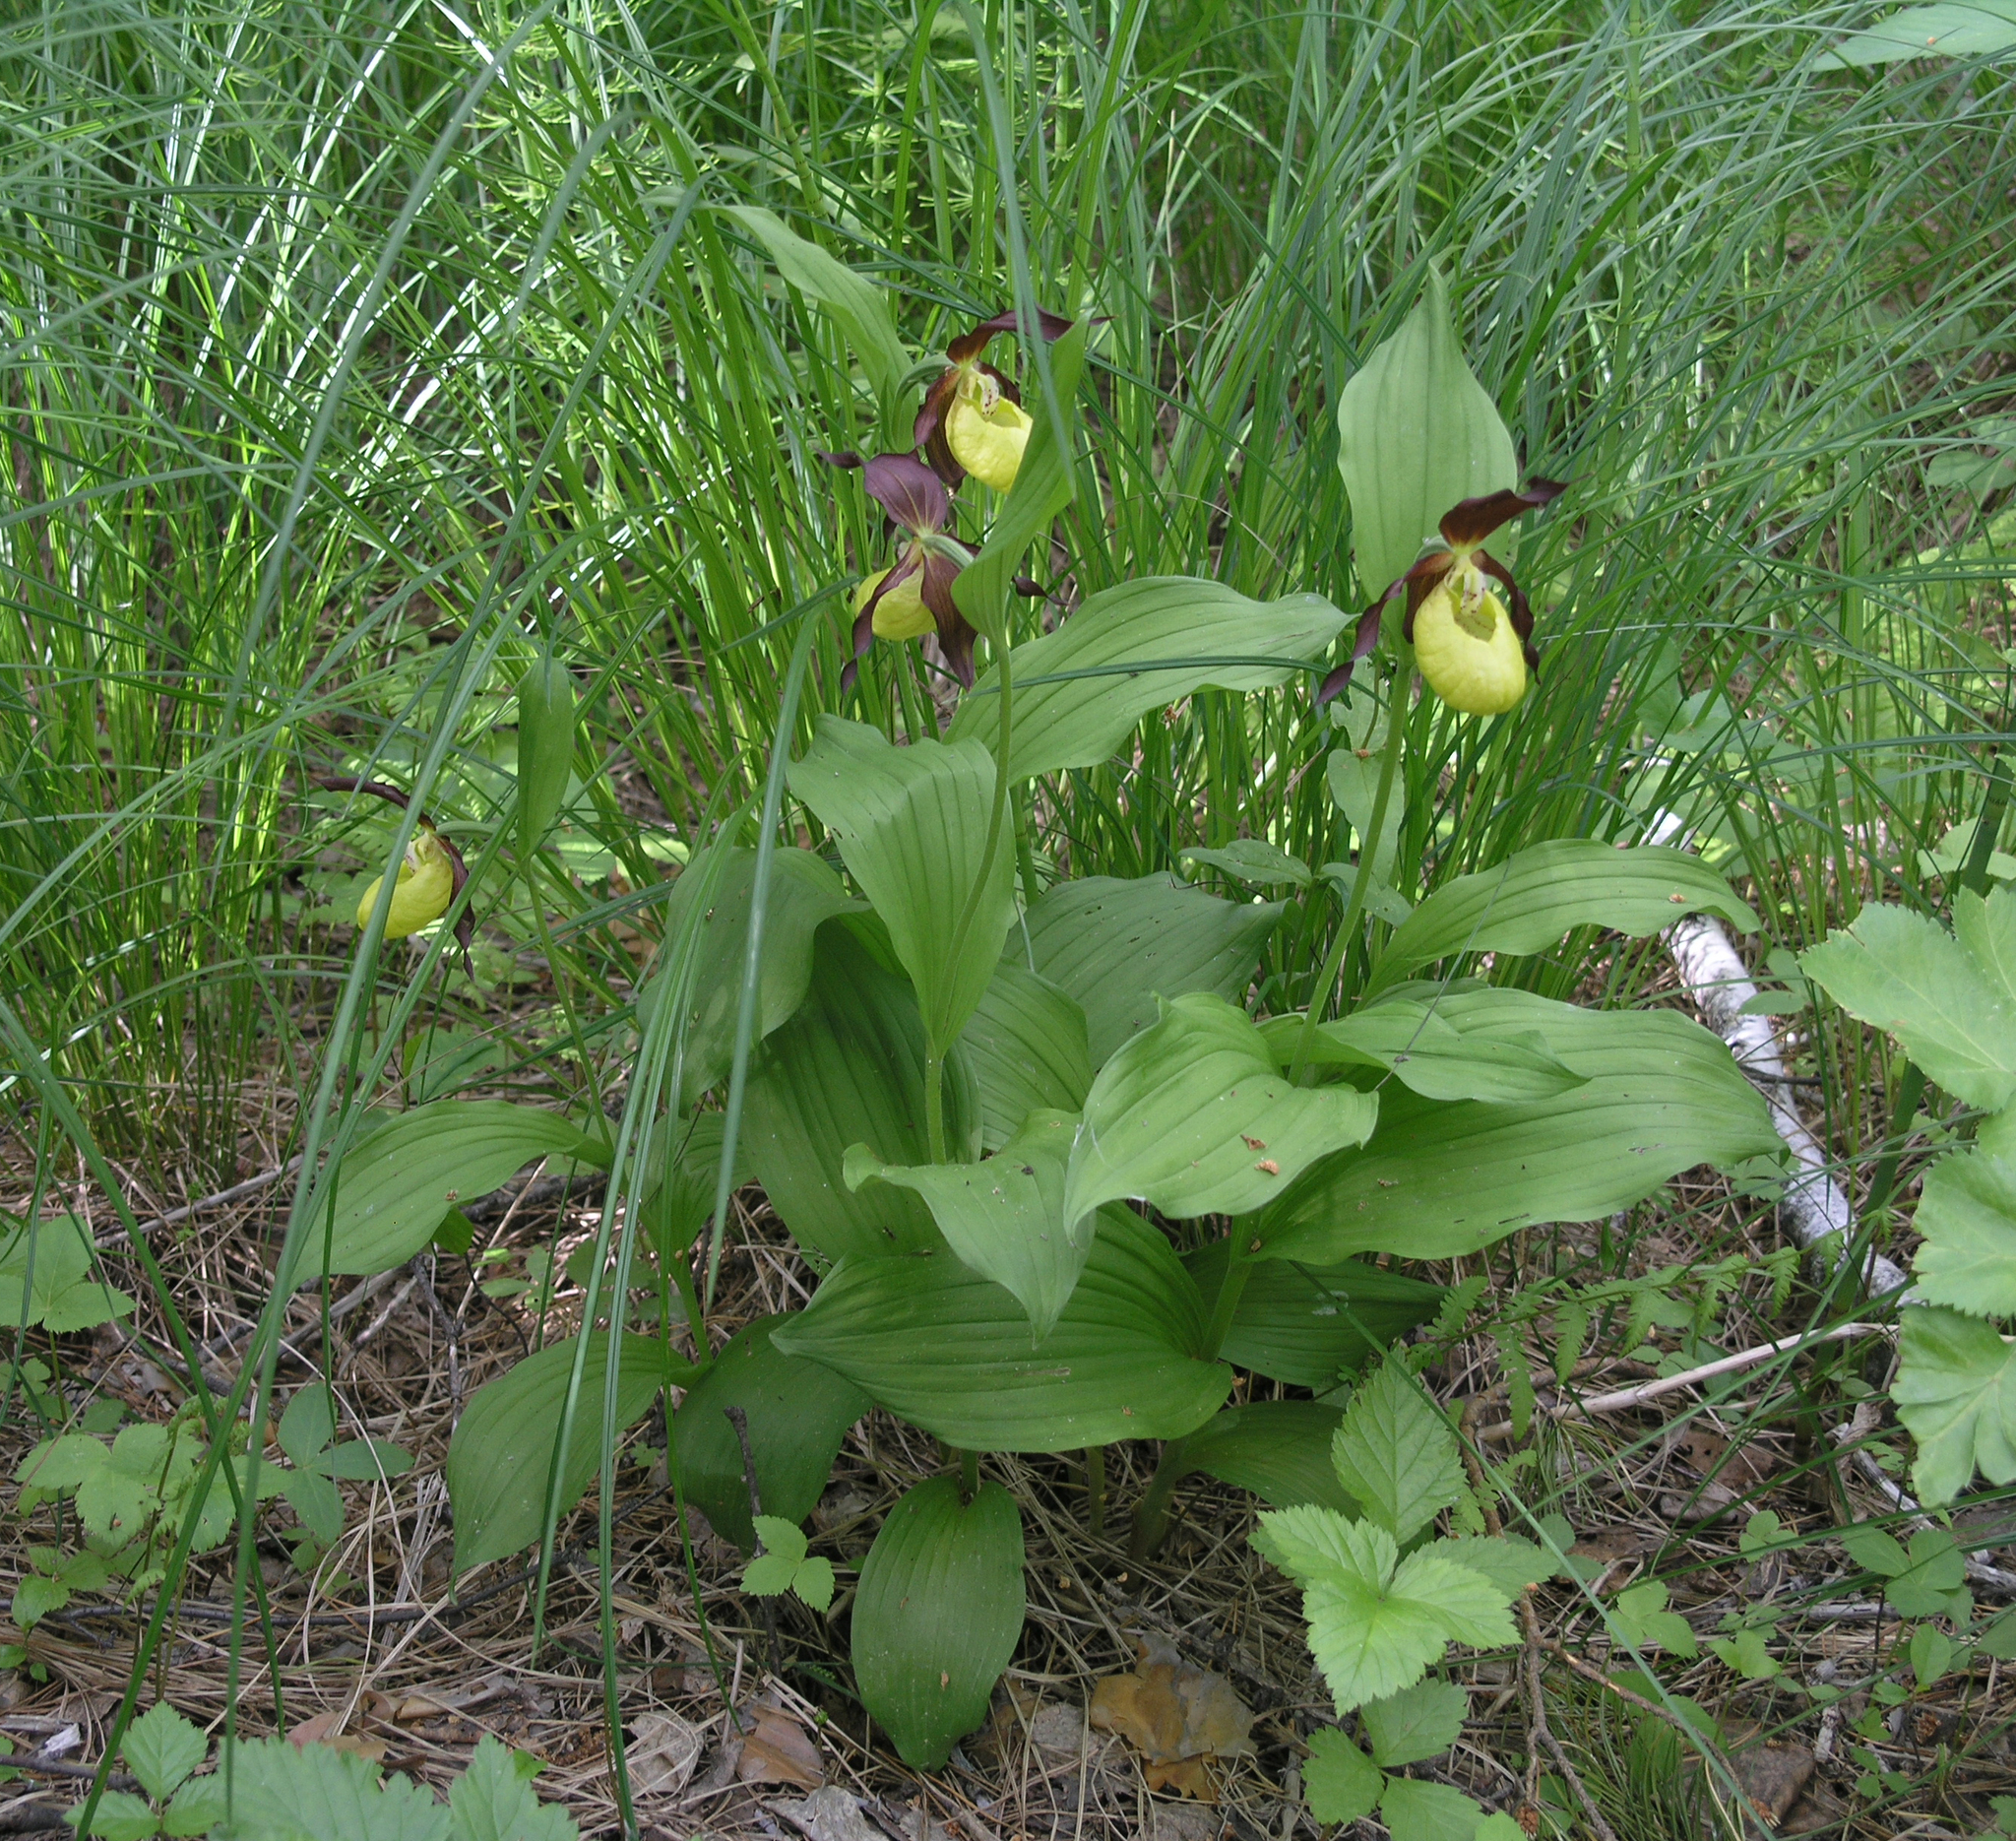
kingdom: Plantae
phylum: Tracheophyta
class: Liliopsida
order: Asparagales
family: Orchidaceae
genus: Cypripedium
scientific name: Cypripedium calceolus
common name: Lady's-slipper
